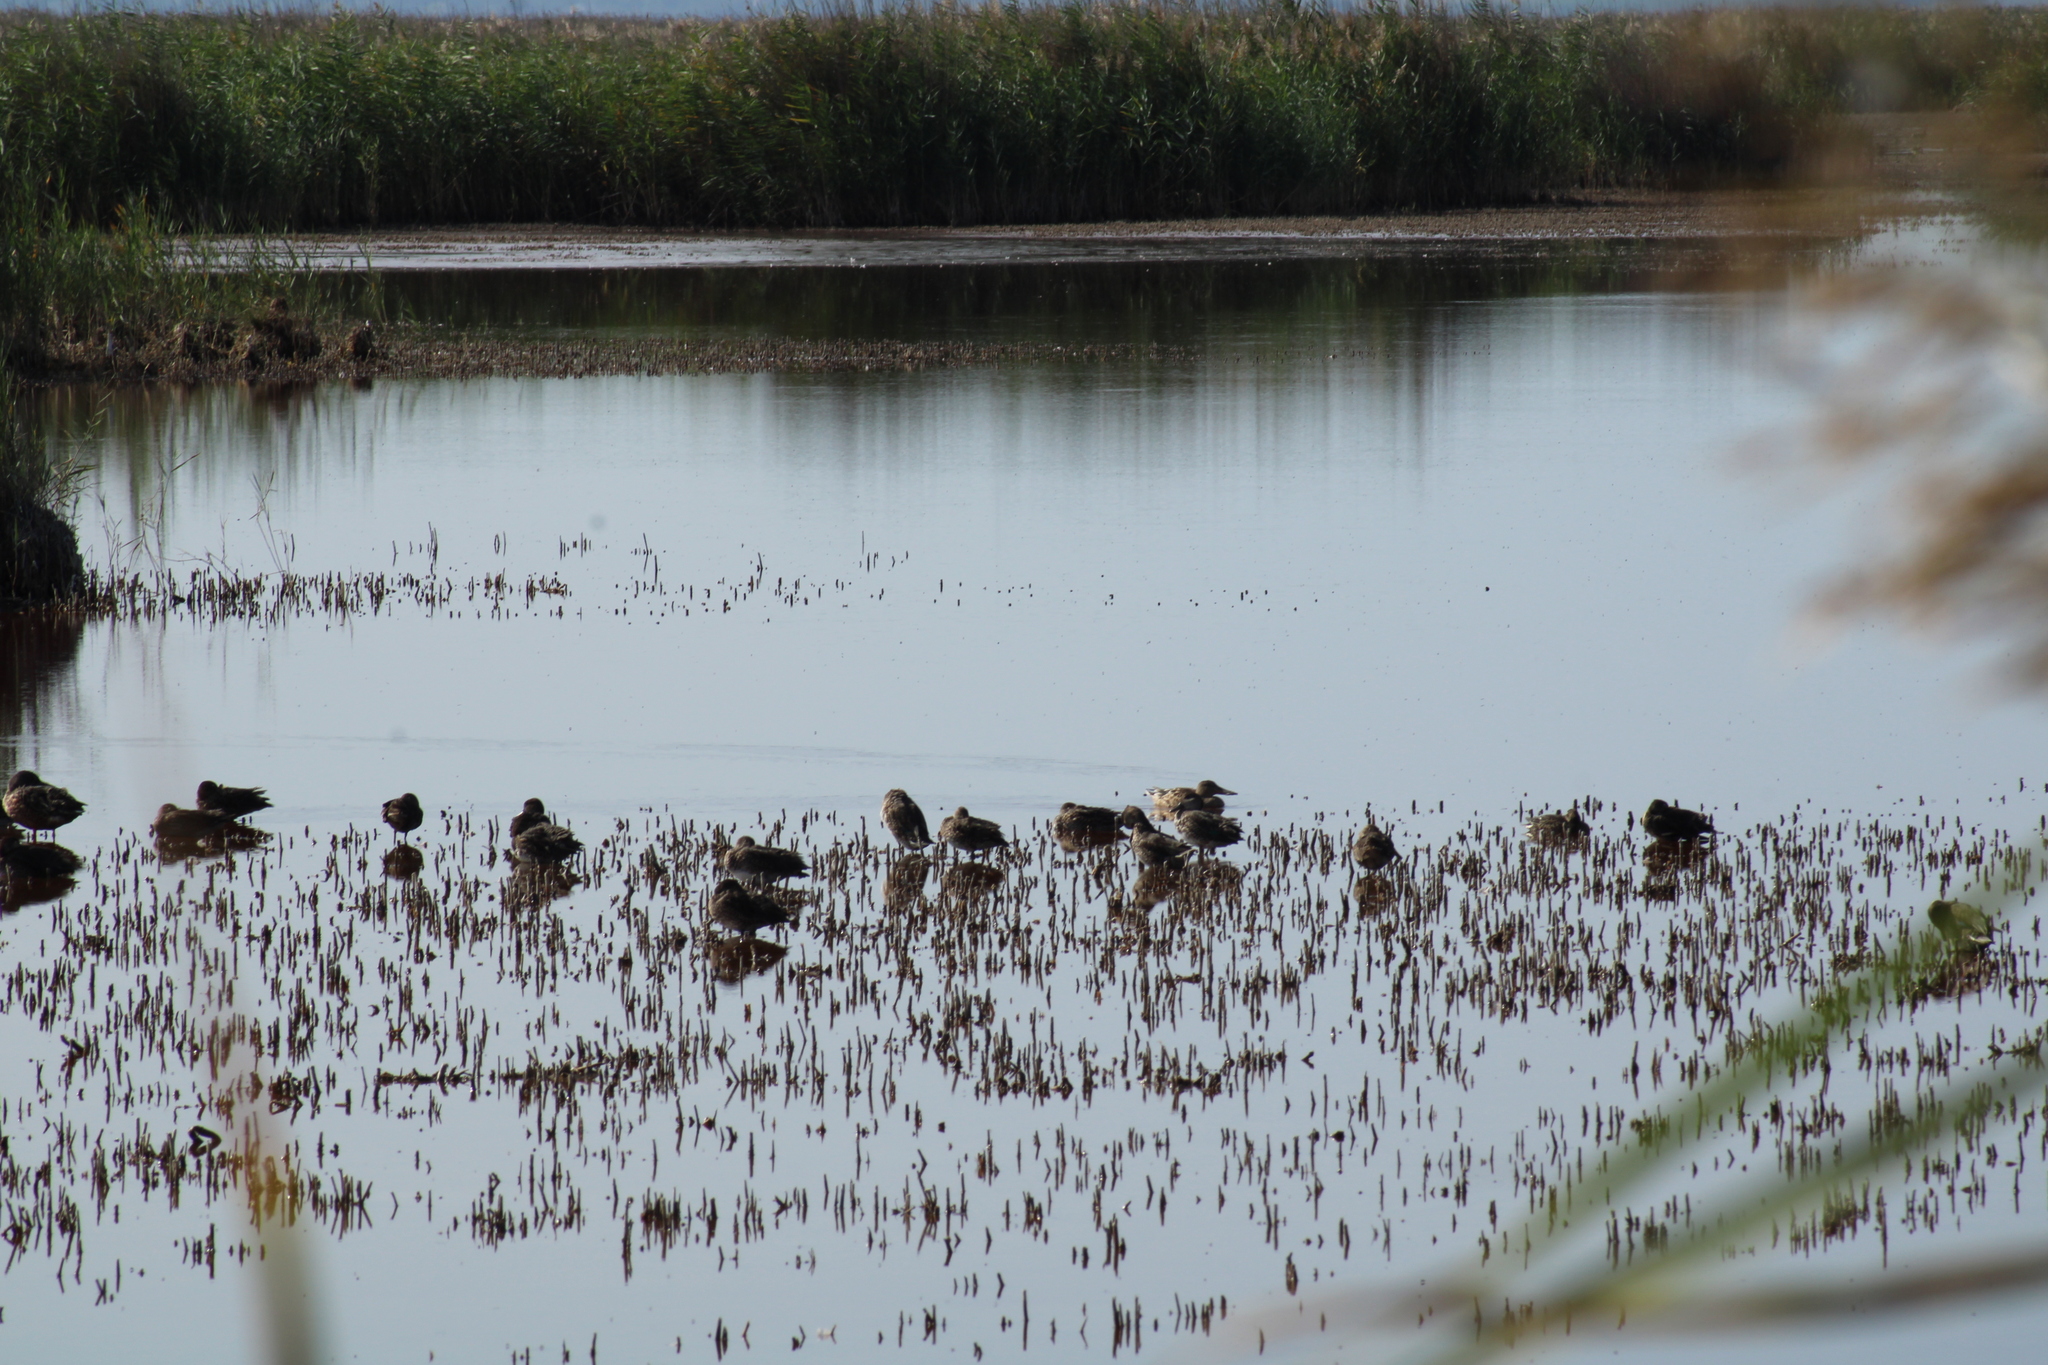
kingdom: Animalia
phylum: Chordata
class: Aves
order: Anseriformes
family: Anatidae
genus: Anas
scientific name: Anas crecca
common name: Eurasian teal
